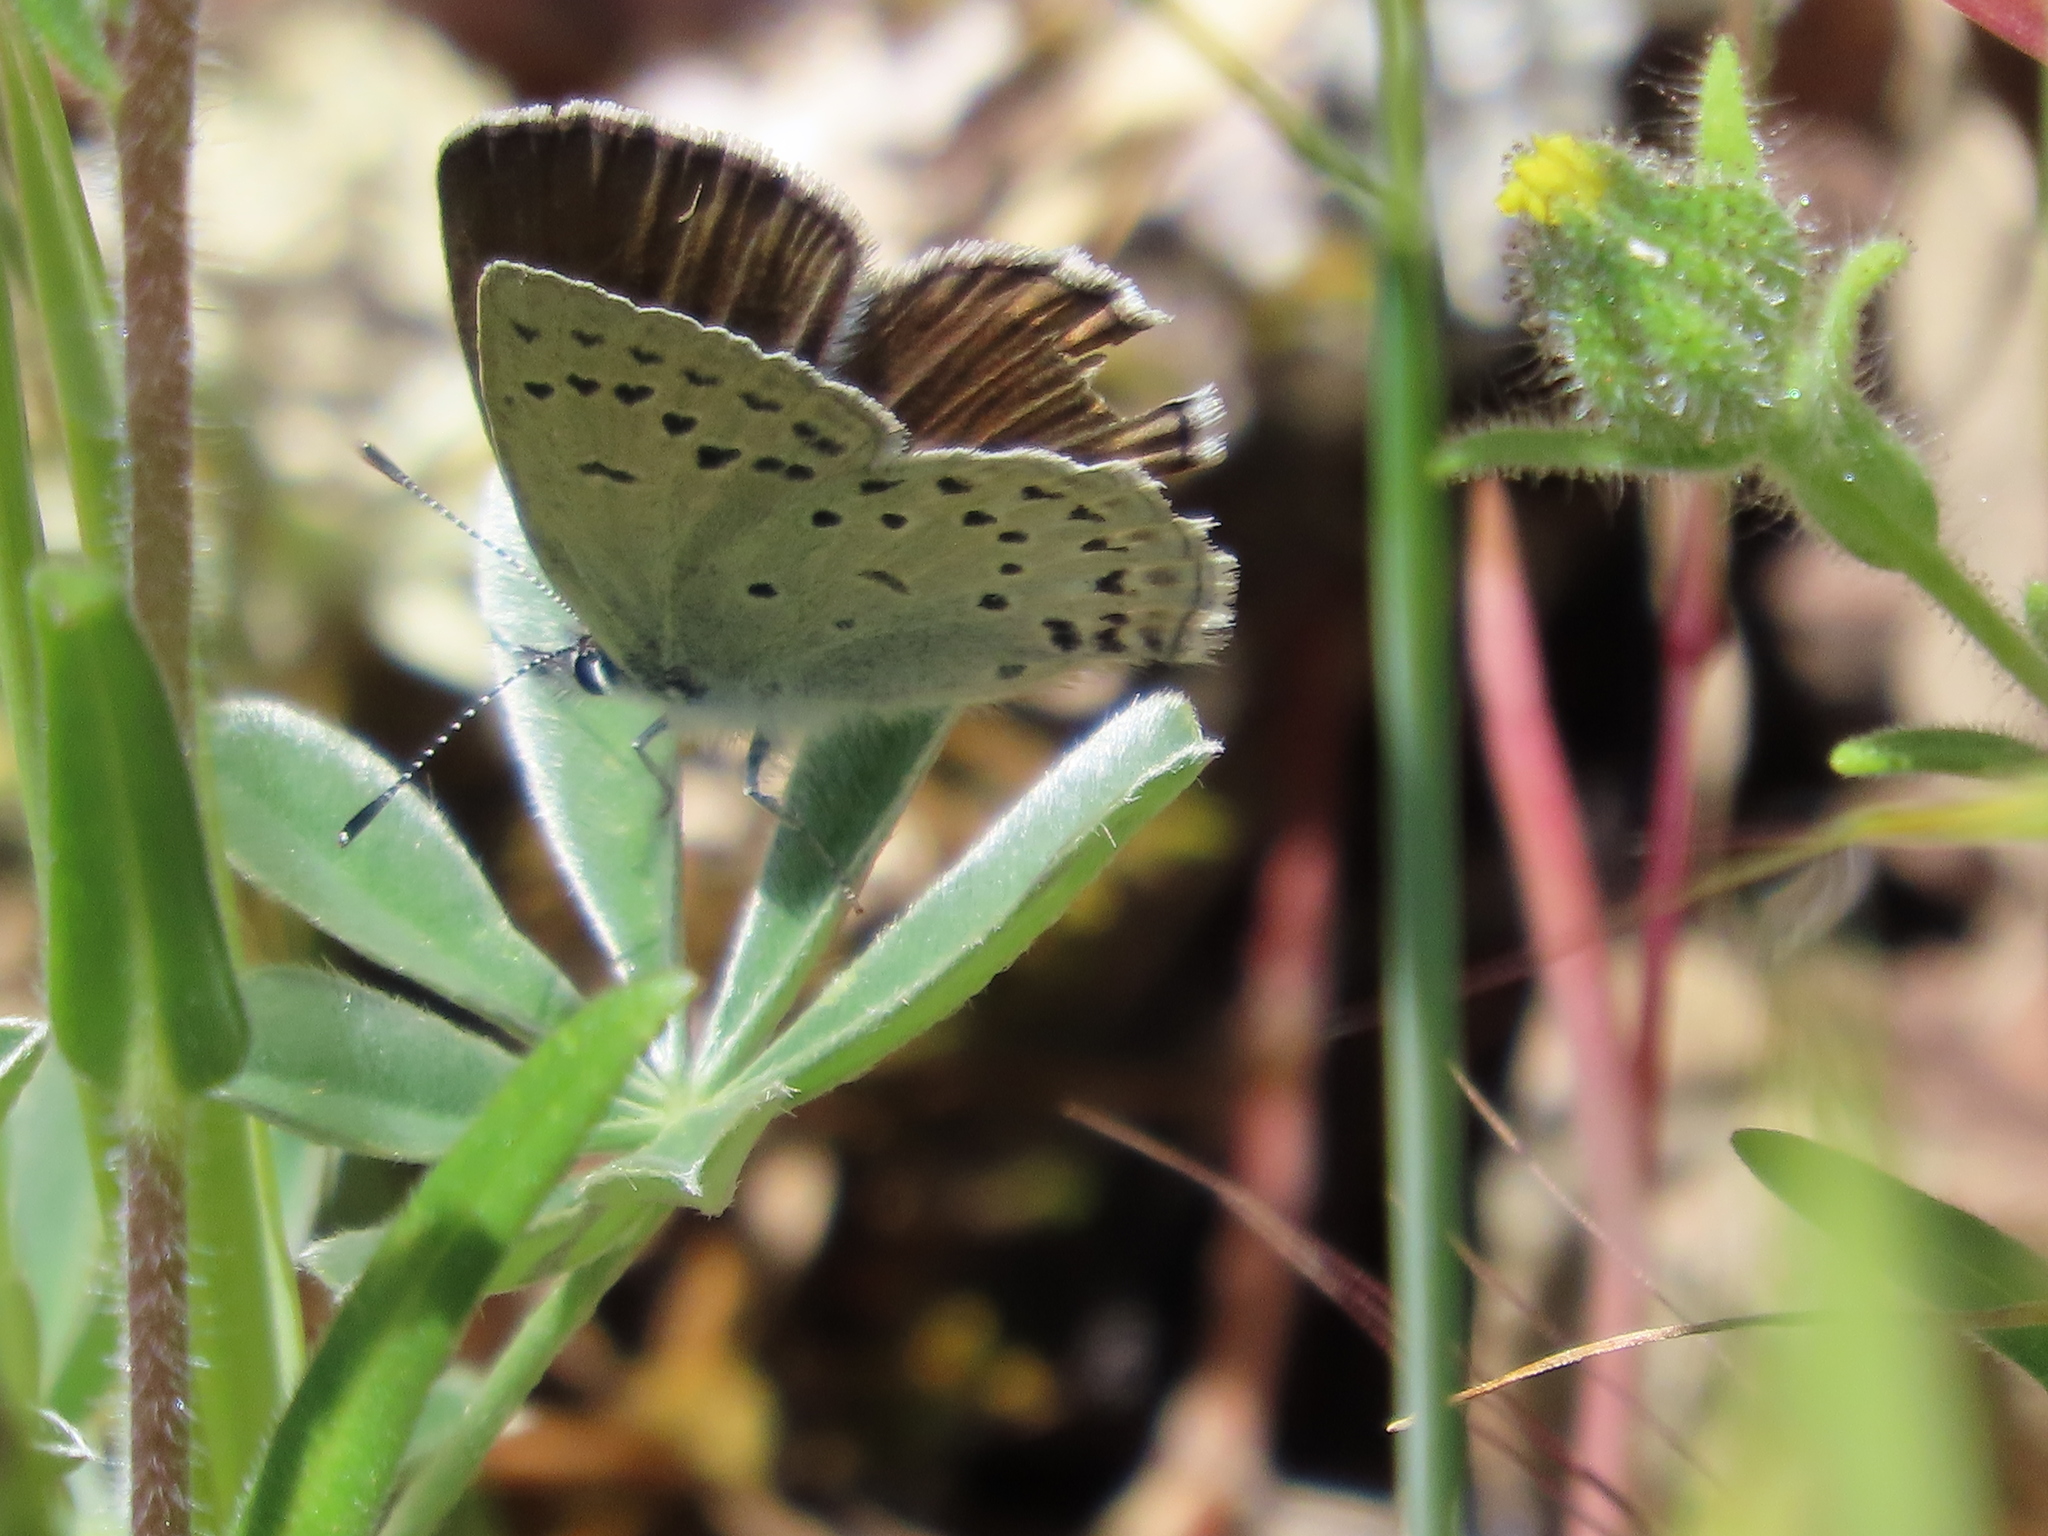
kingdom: Animalia
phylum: Arthropoda
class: Insecta
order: Lepidoptera
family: Lycaenidae
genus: Icaricia
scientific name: Icaricia icarioides
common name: Boisduval's blue
